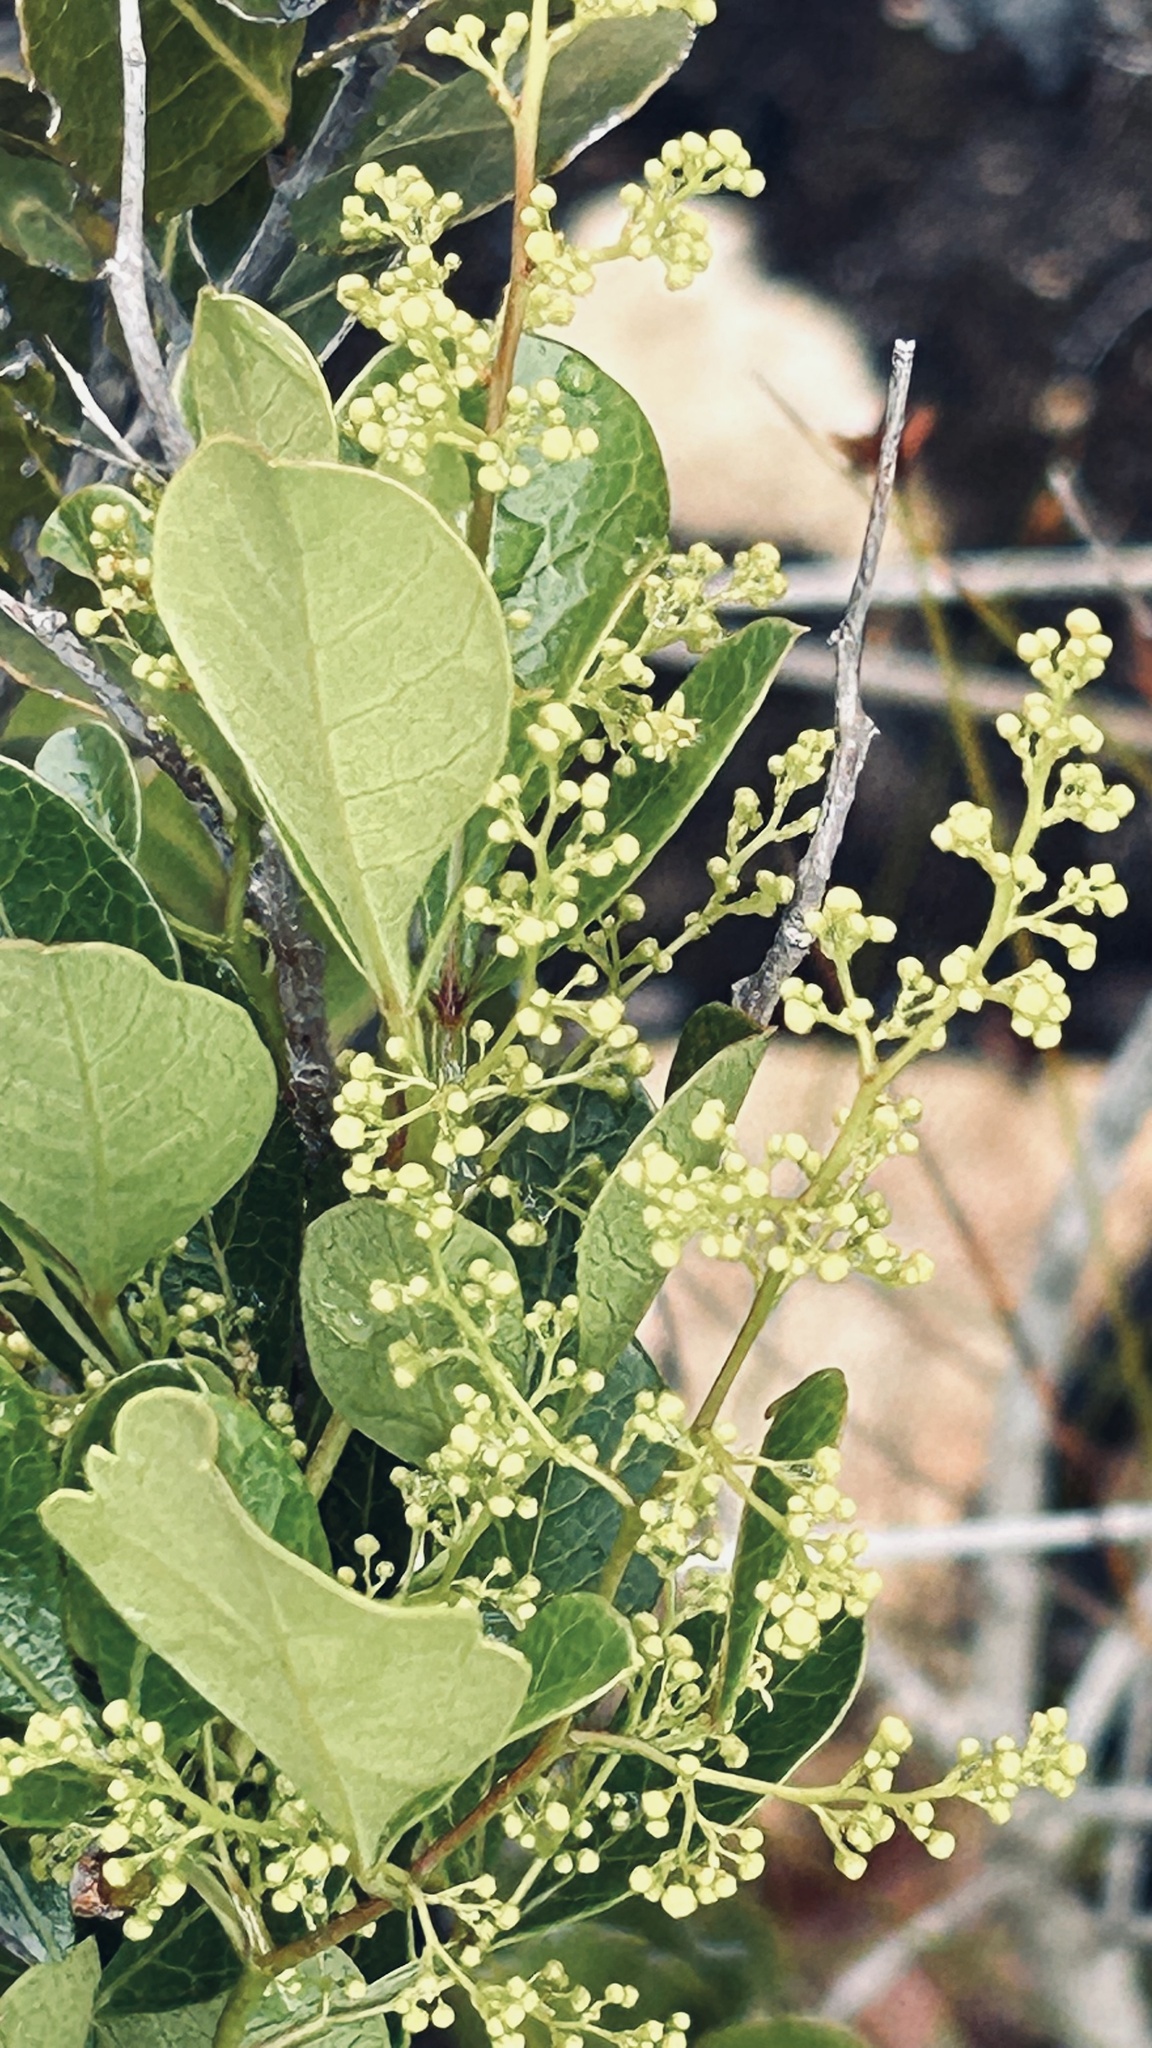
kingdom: Plantae
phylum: Tracheophyta
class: Magnoliopsida
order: Sapindales
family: Anacardiaceae
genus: Searsia
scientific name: Searsia laevigata
